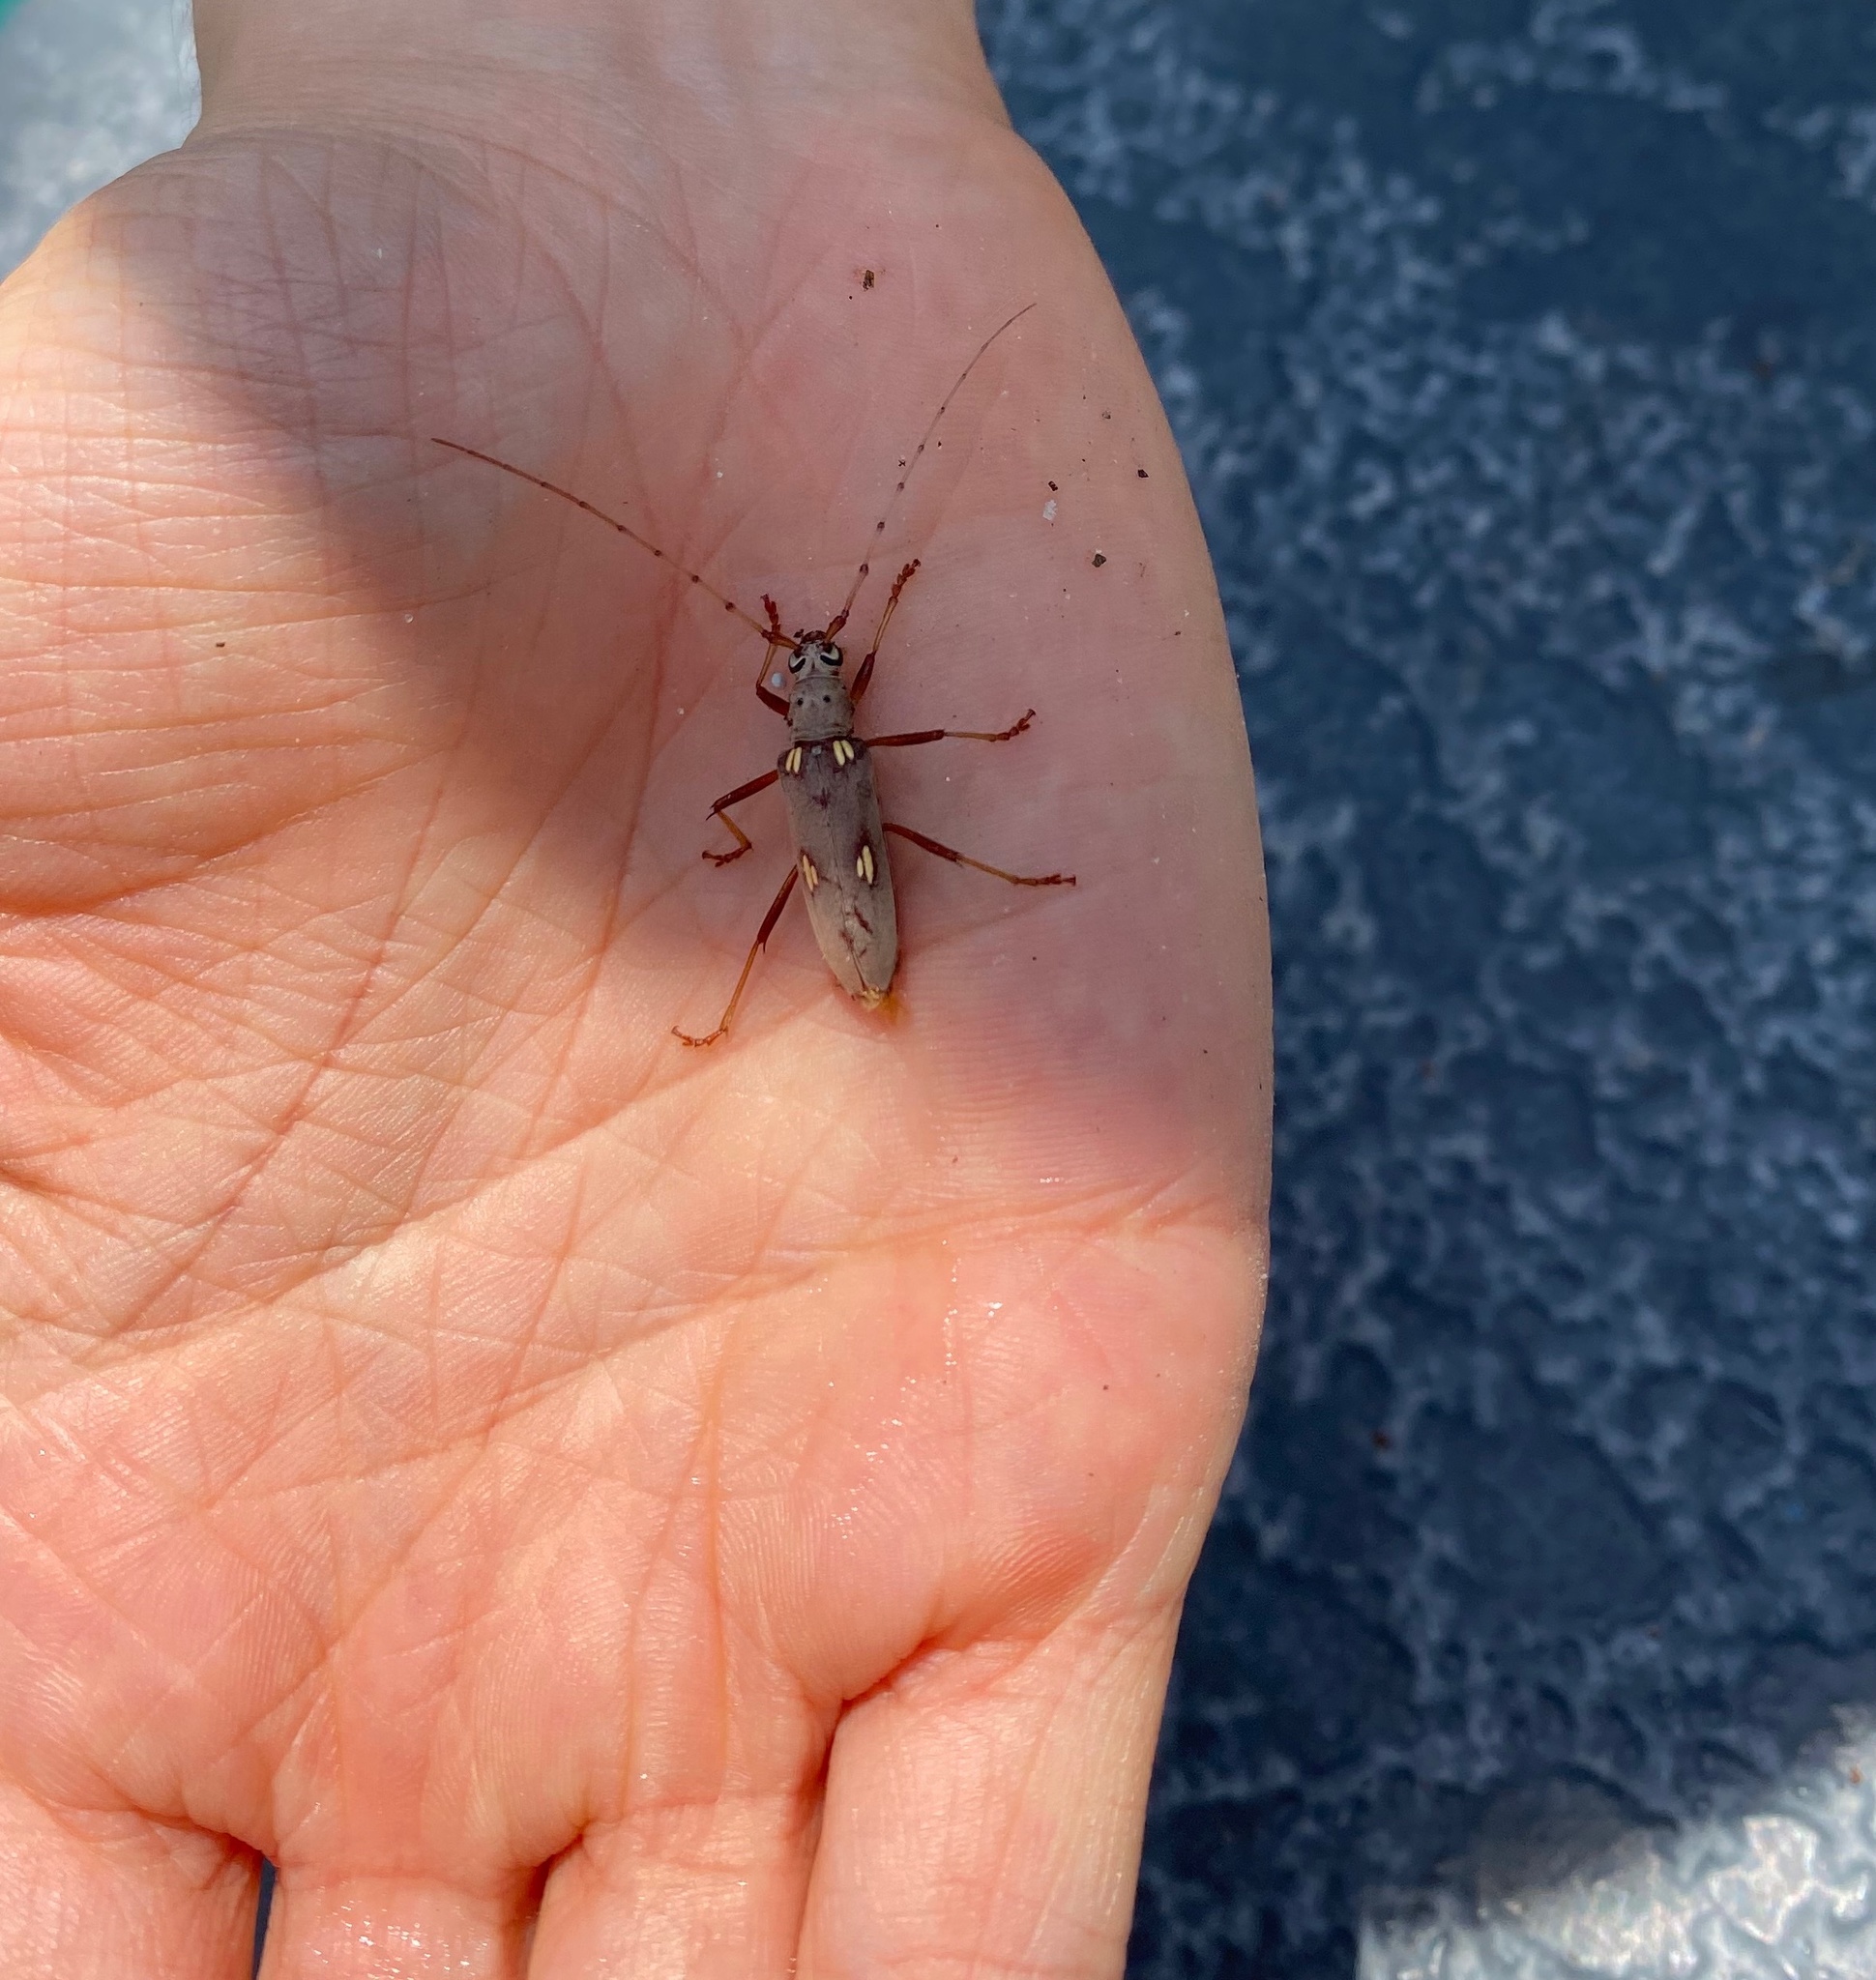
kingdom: Animalia
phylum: Arthropoda
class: Insecta
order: Coleoptera
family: Cerambycidae
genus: Eburia
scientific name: Eburia distincta
